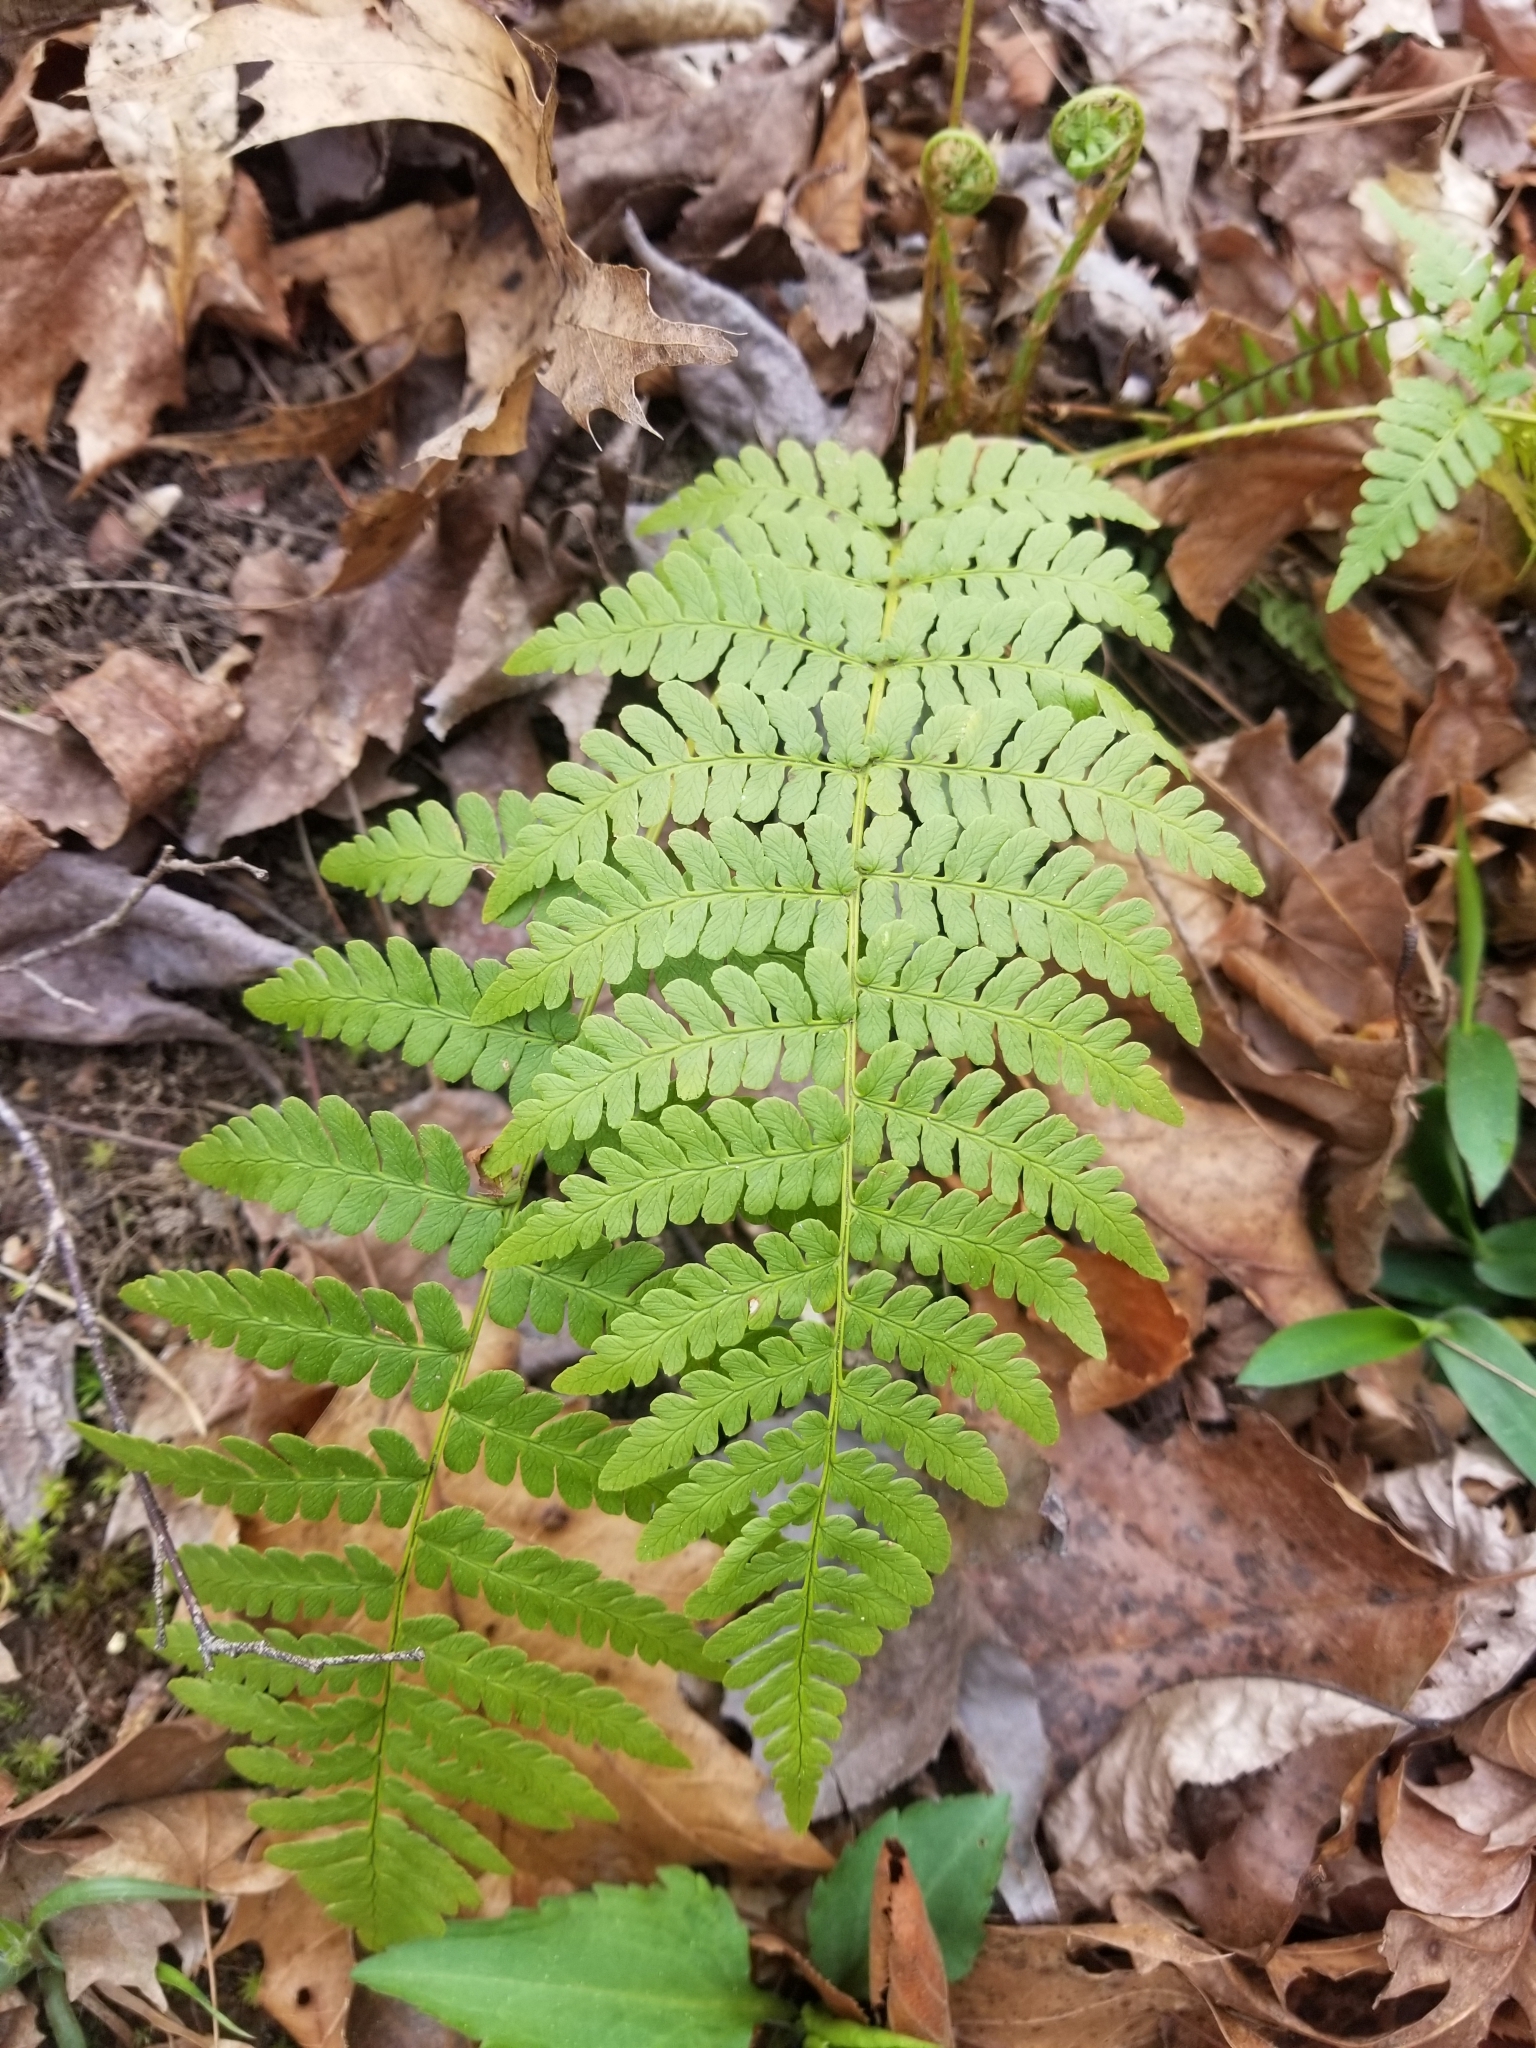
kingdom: Plantae
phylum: Tracheophyta
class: Polypodiopsida
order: Polypodiales
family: Dryopteridaceae
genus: Dryopteris
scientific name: Dryopteris marginalis
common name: Marginal wood fern
